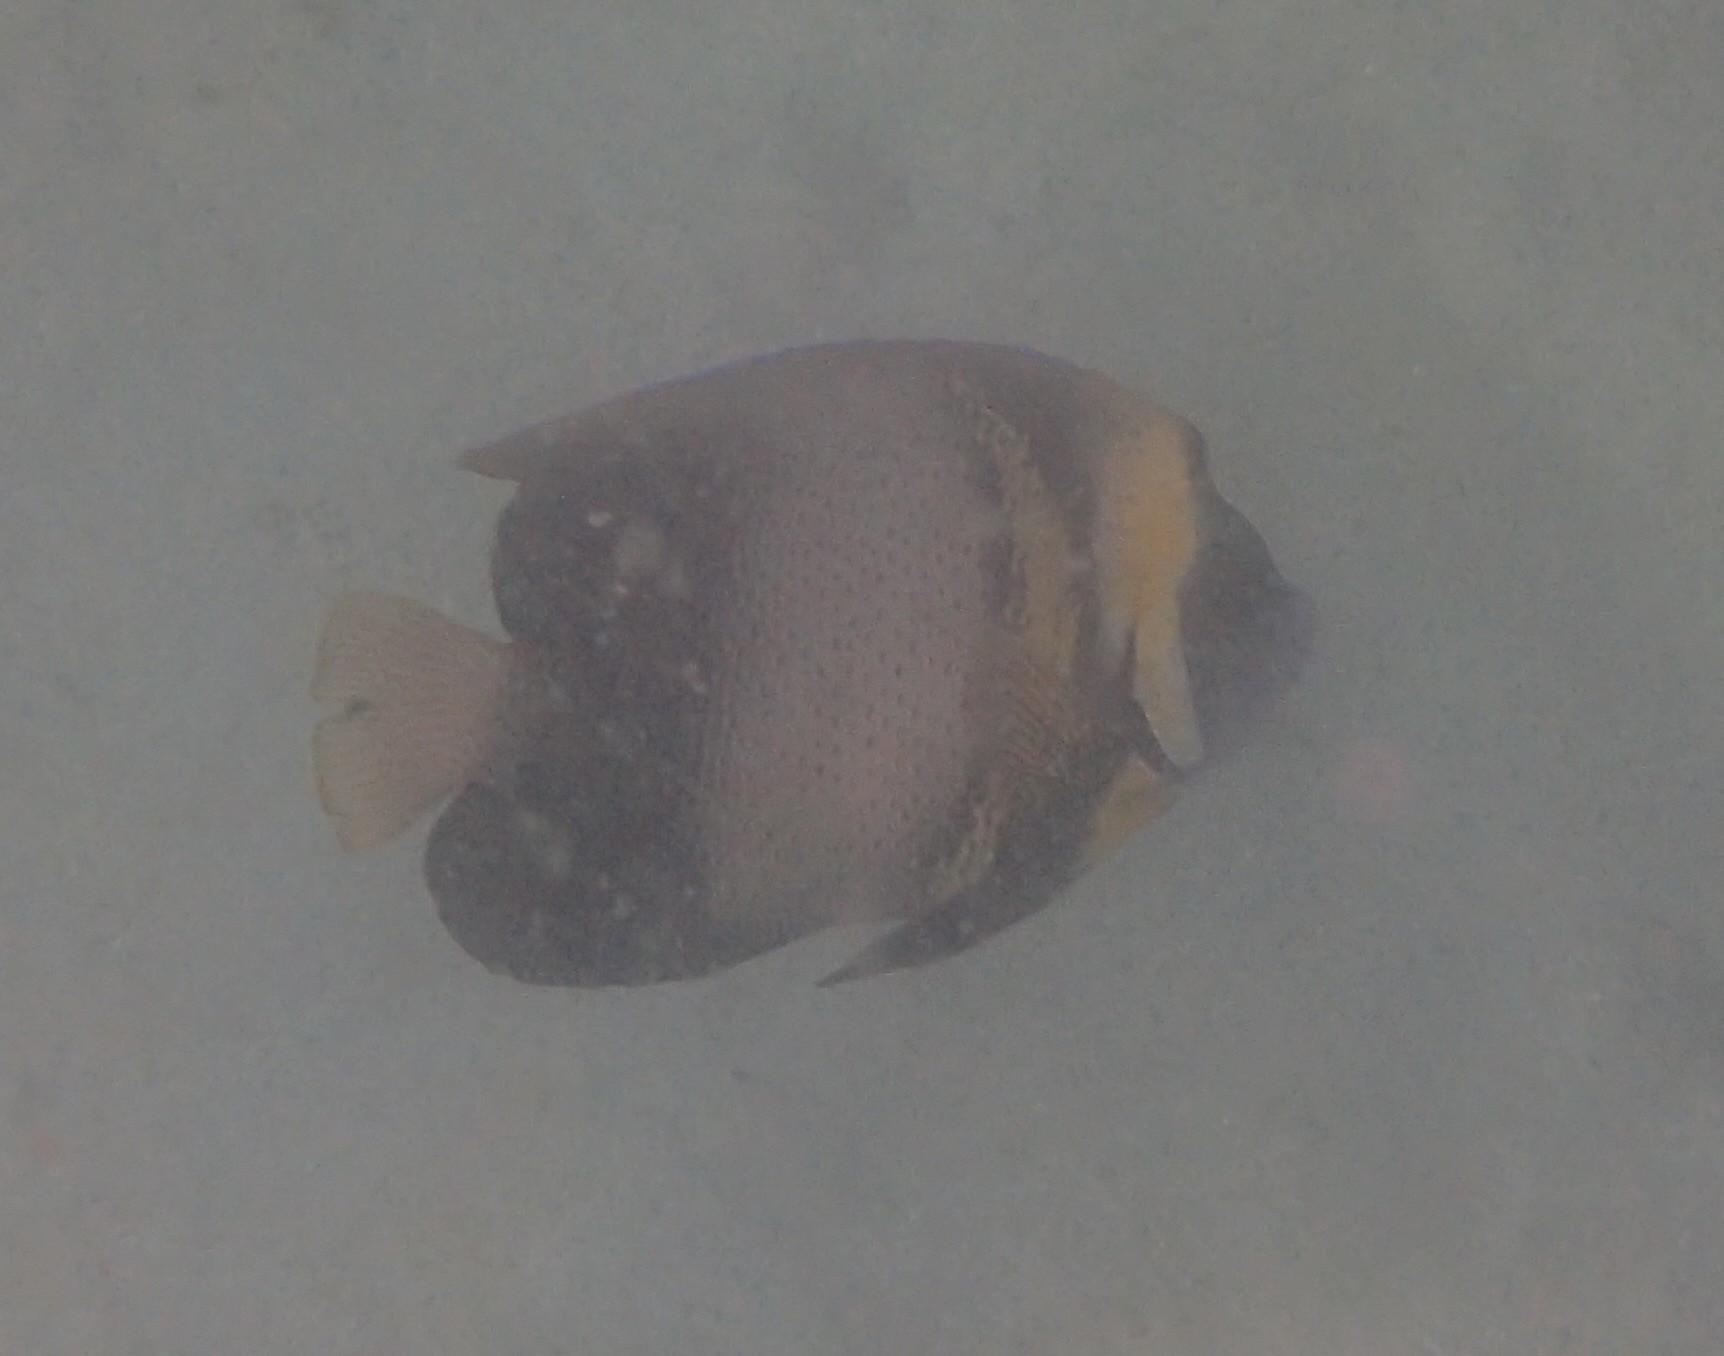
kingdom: Animalia
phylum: Chordata
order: Perciformes
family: Pomacanthidae
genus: Pomacanthus
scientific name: Pomacanthus zonipectus
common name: Cortez angelfish
